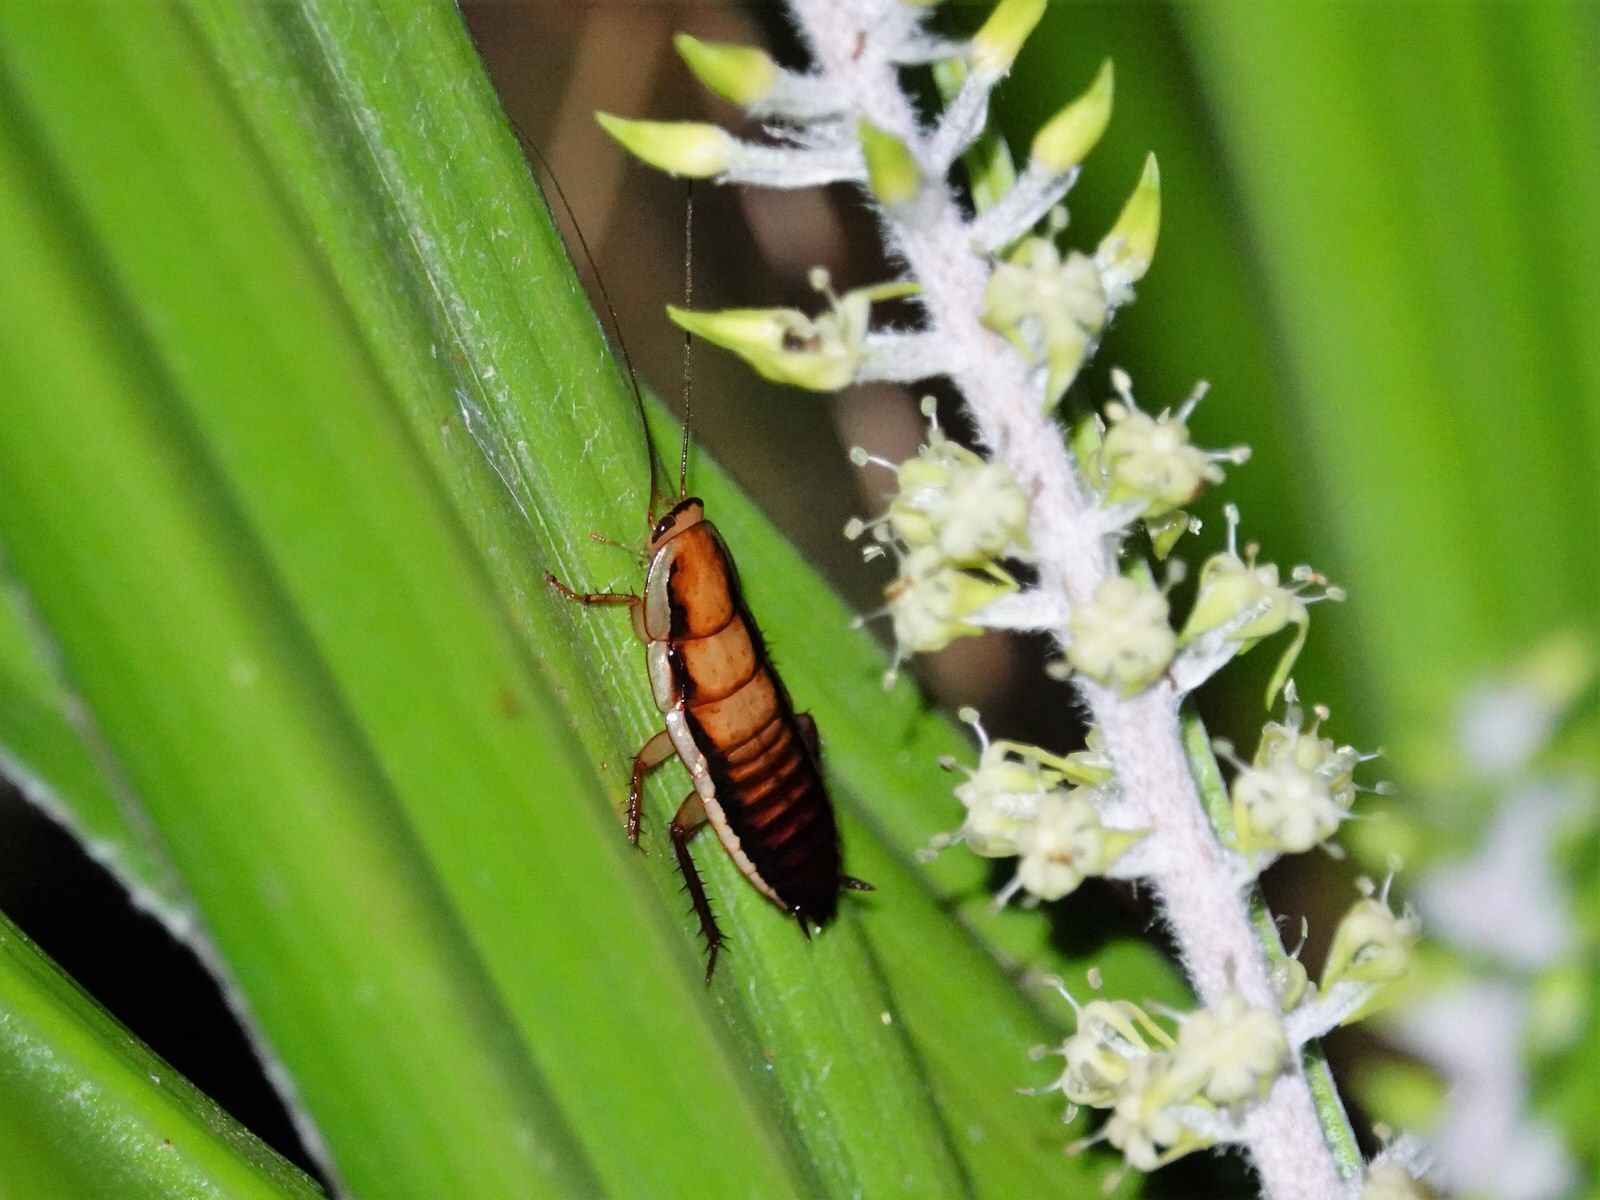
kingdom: Animalia
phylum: Arthropoda
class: Insecta
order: Blattodea
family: Blattidae
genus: Drymaplaneta
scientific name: Drymaplaneta heydeniana
